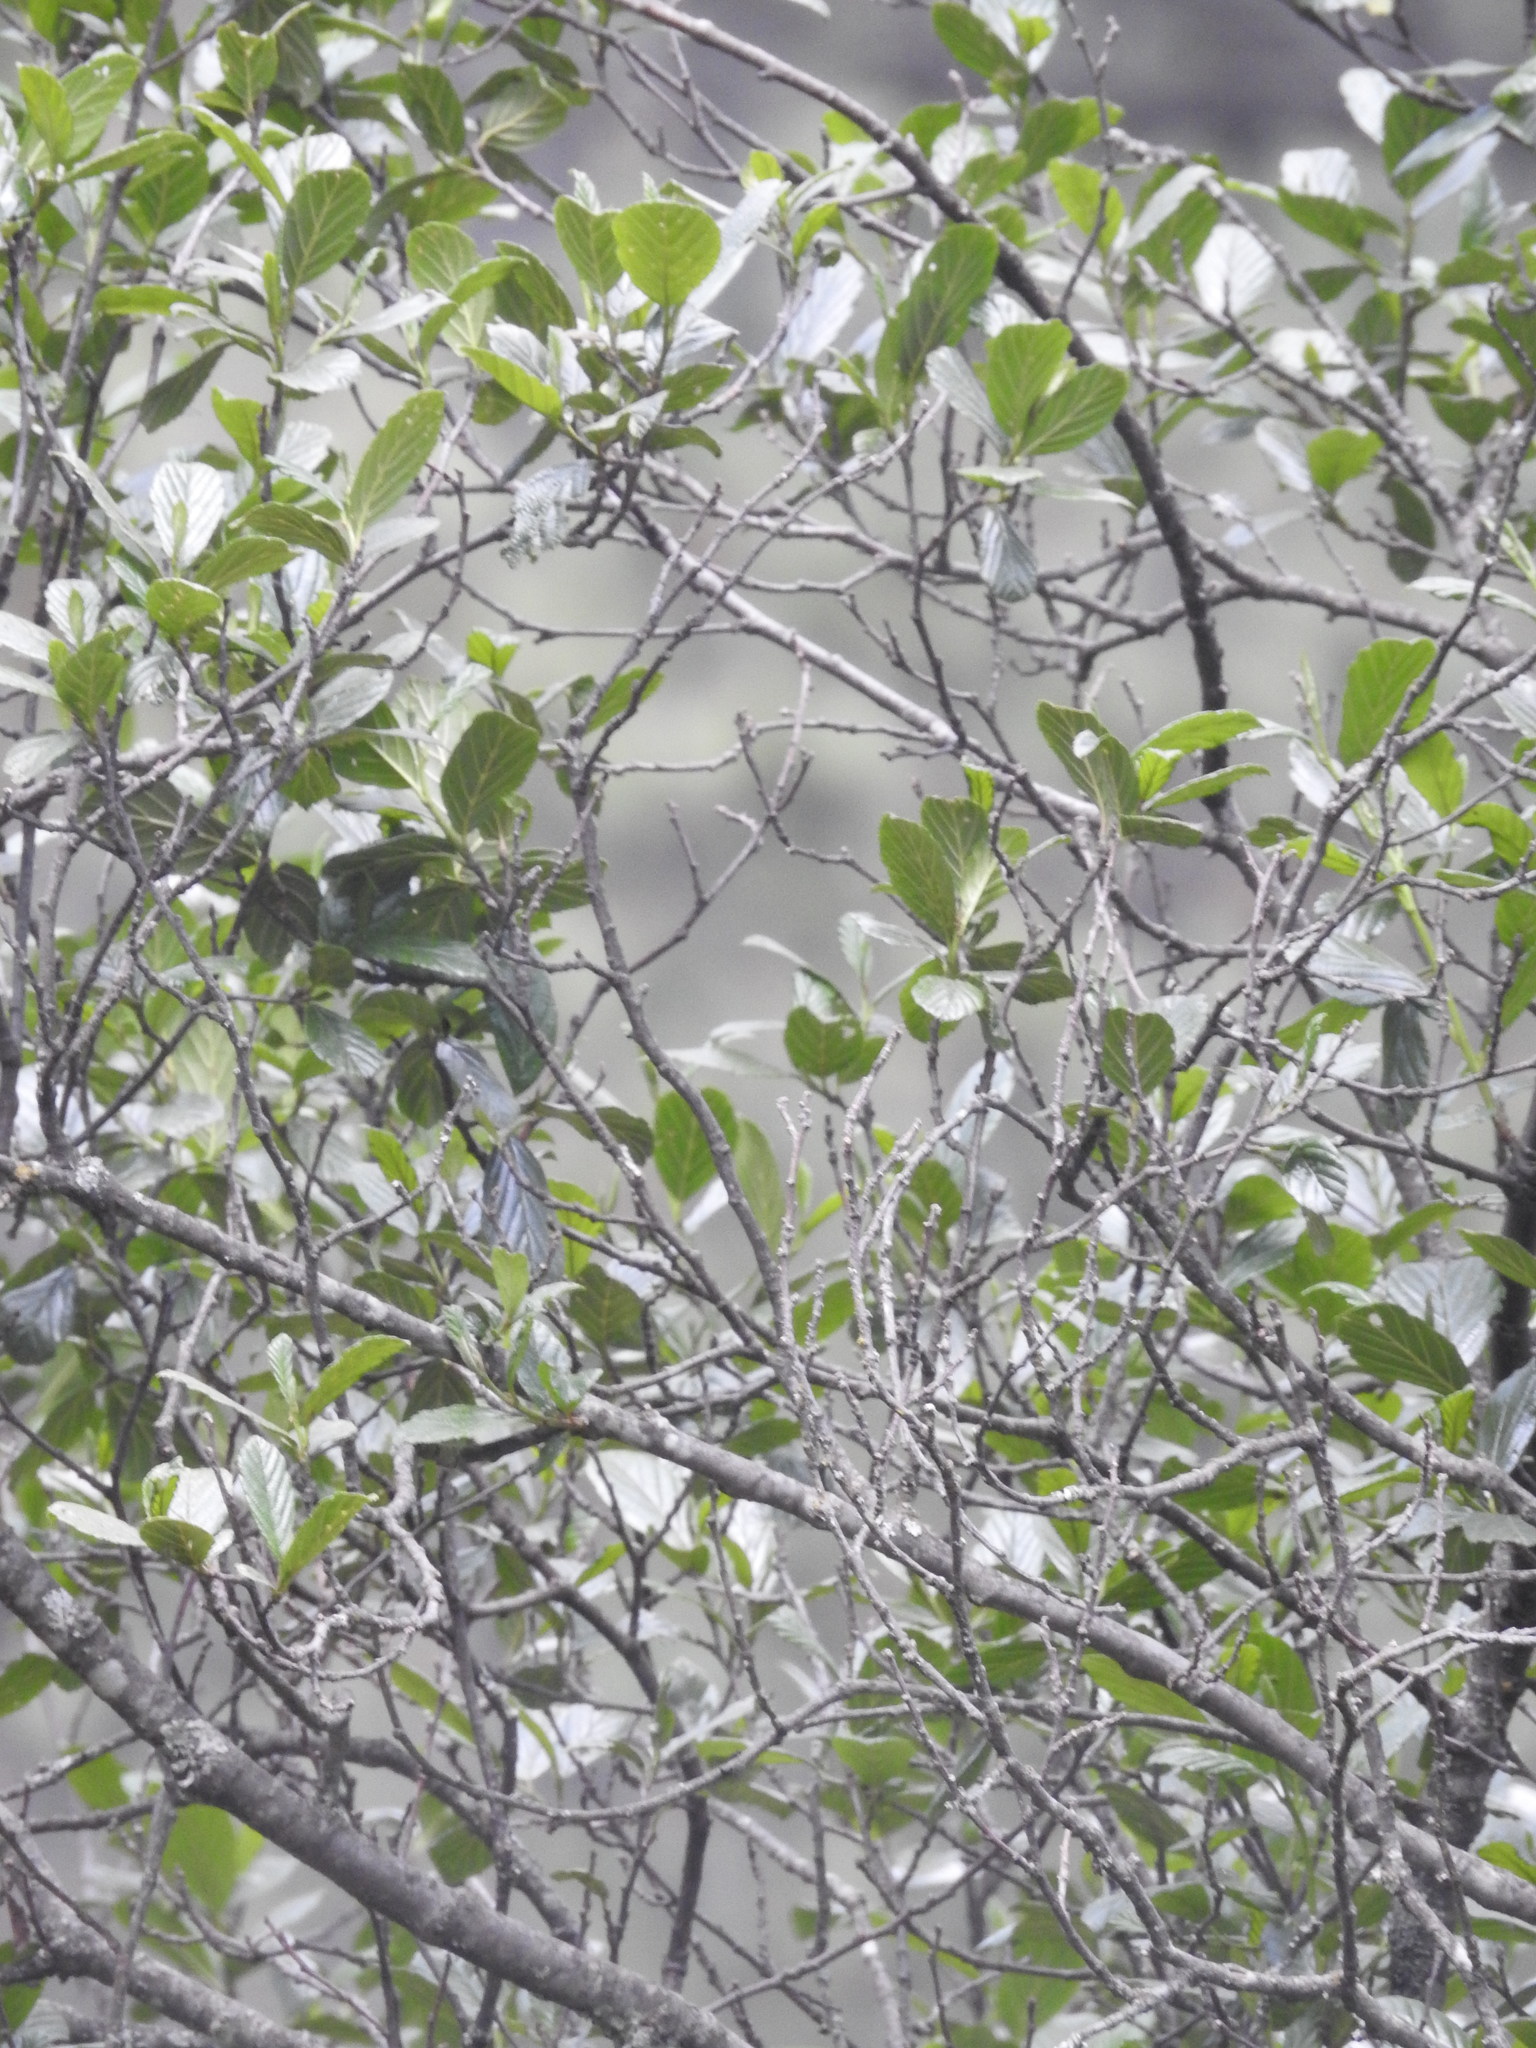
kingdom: Plantae
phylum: Tracheophyta
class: Magnoliopsida
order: Fagales
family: Betulaceae
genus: Alnus
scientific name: Alnus jorullensis
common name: Evergreen alder
